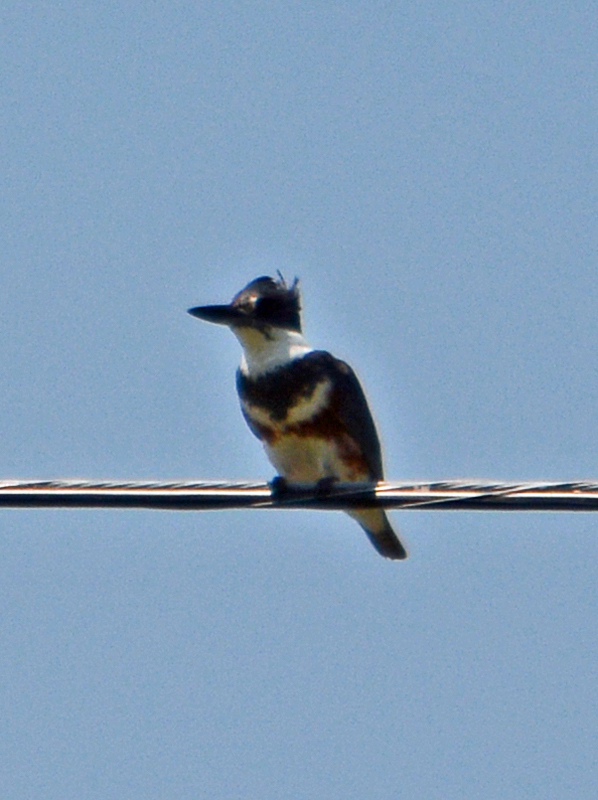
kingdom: Animalia
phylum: Chordata
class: Aves
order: Coraciiformes
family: Alcedinidae
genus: Megaceryle
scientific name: Megaceryle alcyon
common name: Belted kingfisher
